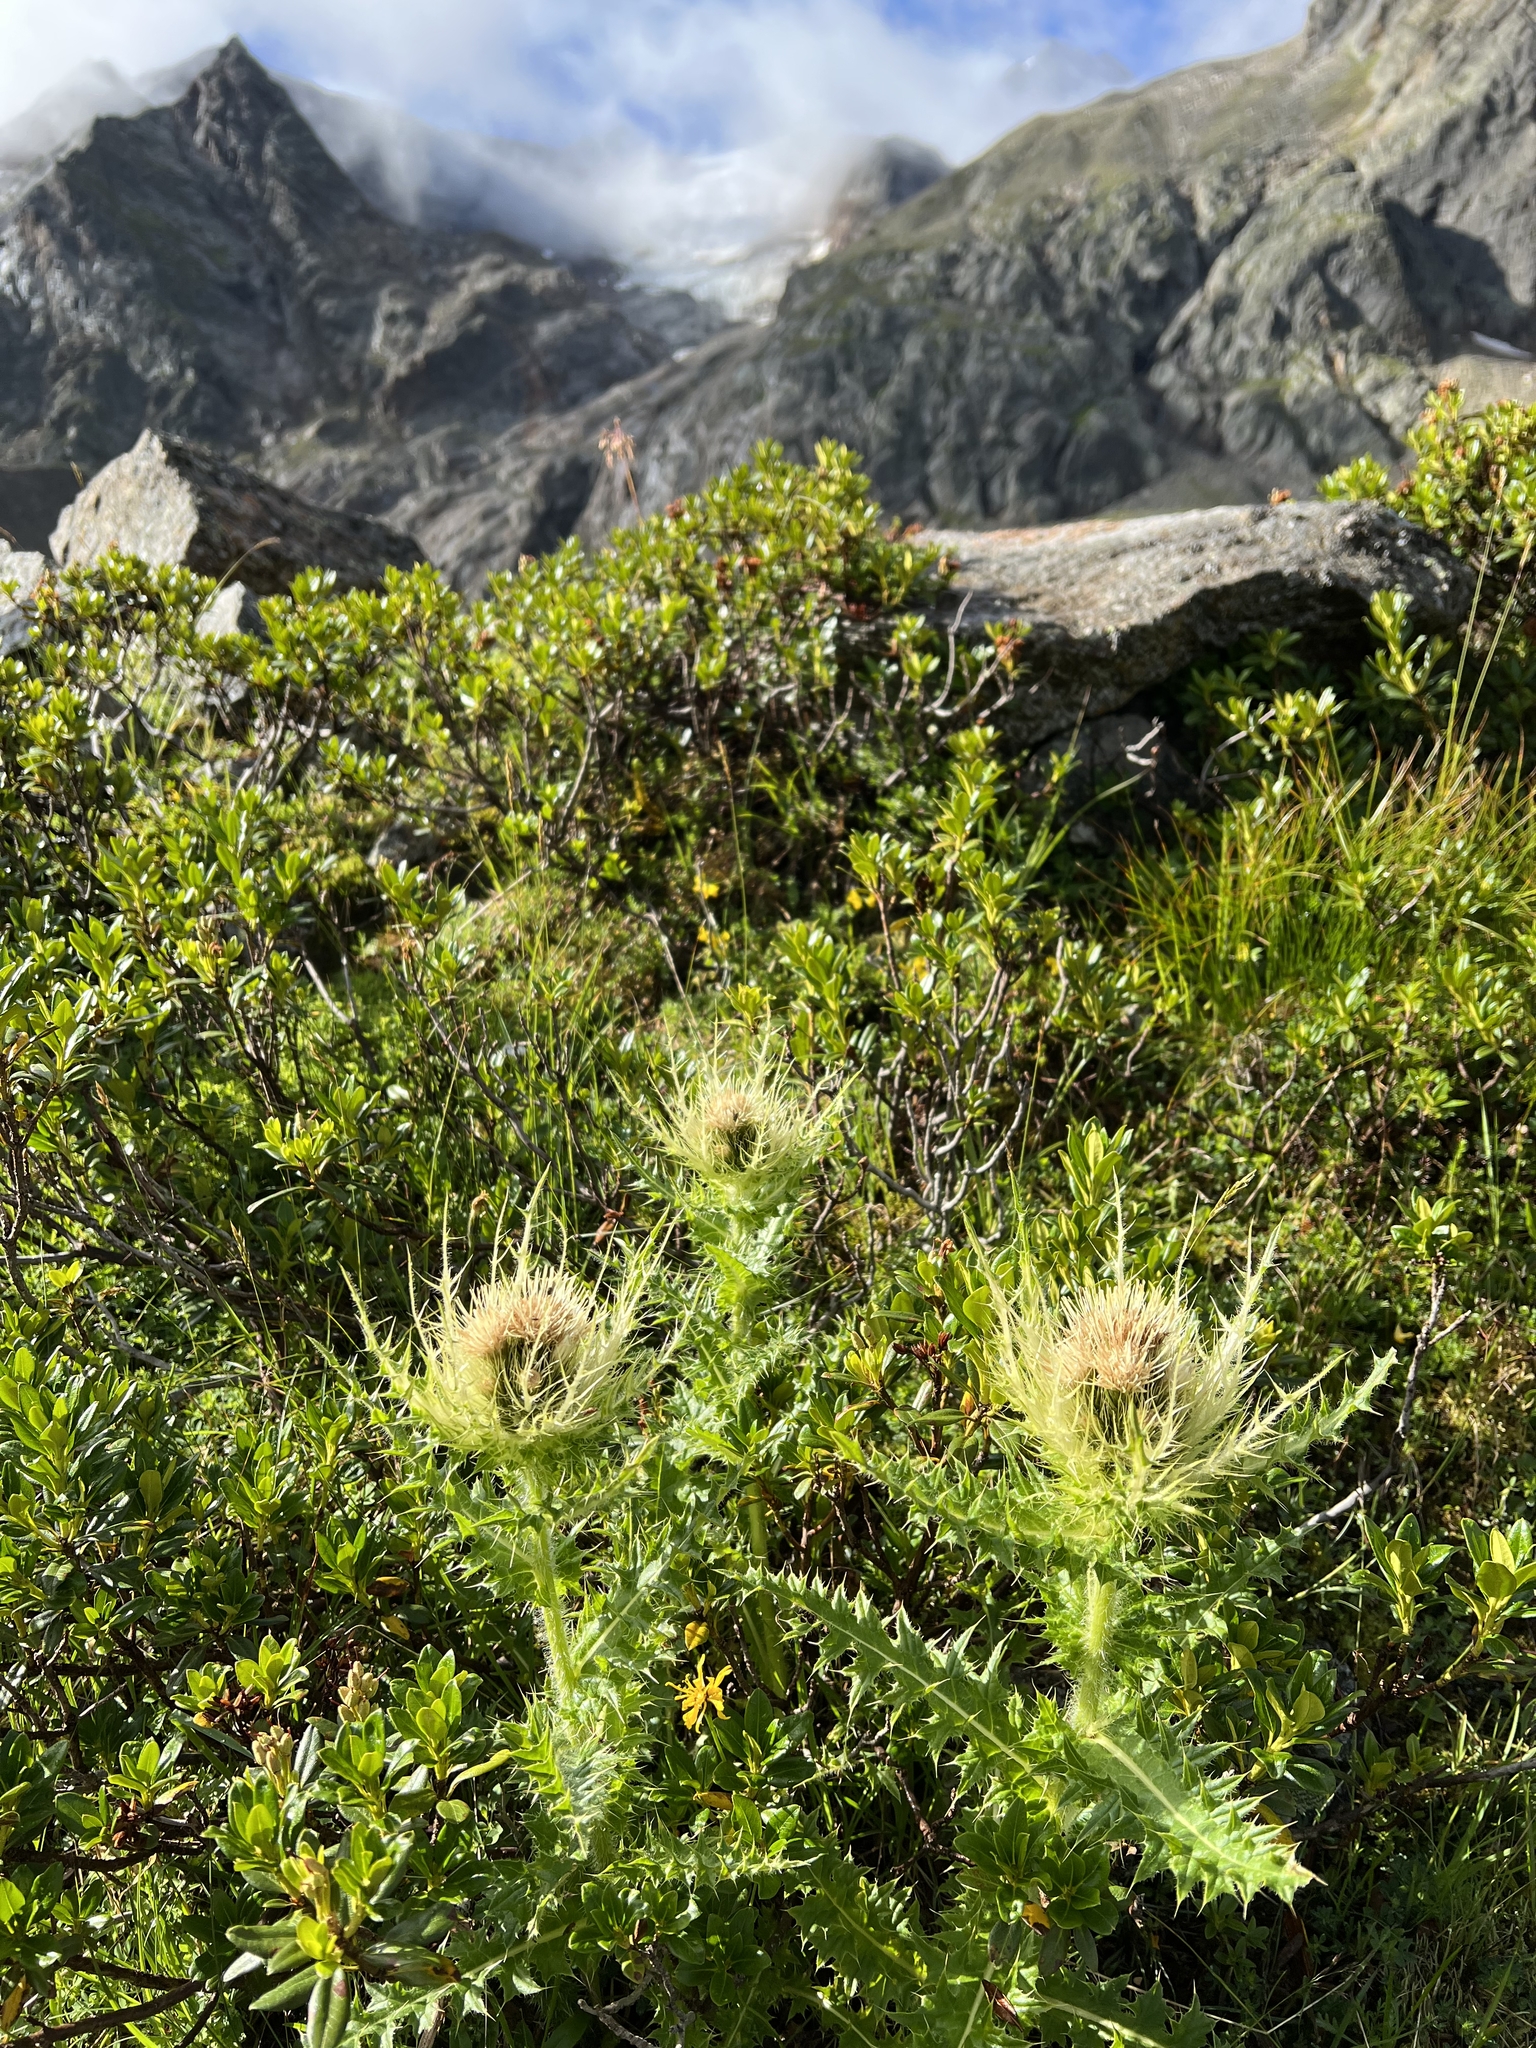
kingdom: Plantae
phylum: Tracheophyta
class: Magnoliopsida
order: Asterales
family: Asteraceae
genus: Cirsium
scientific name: Cirsium spinosissimum
